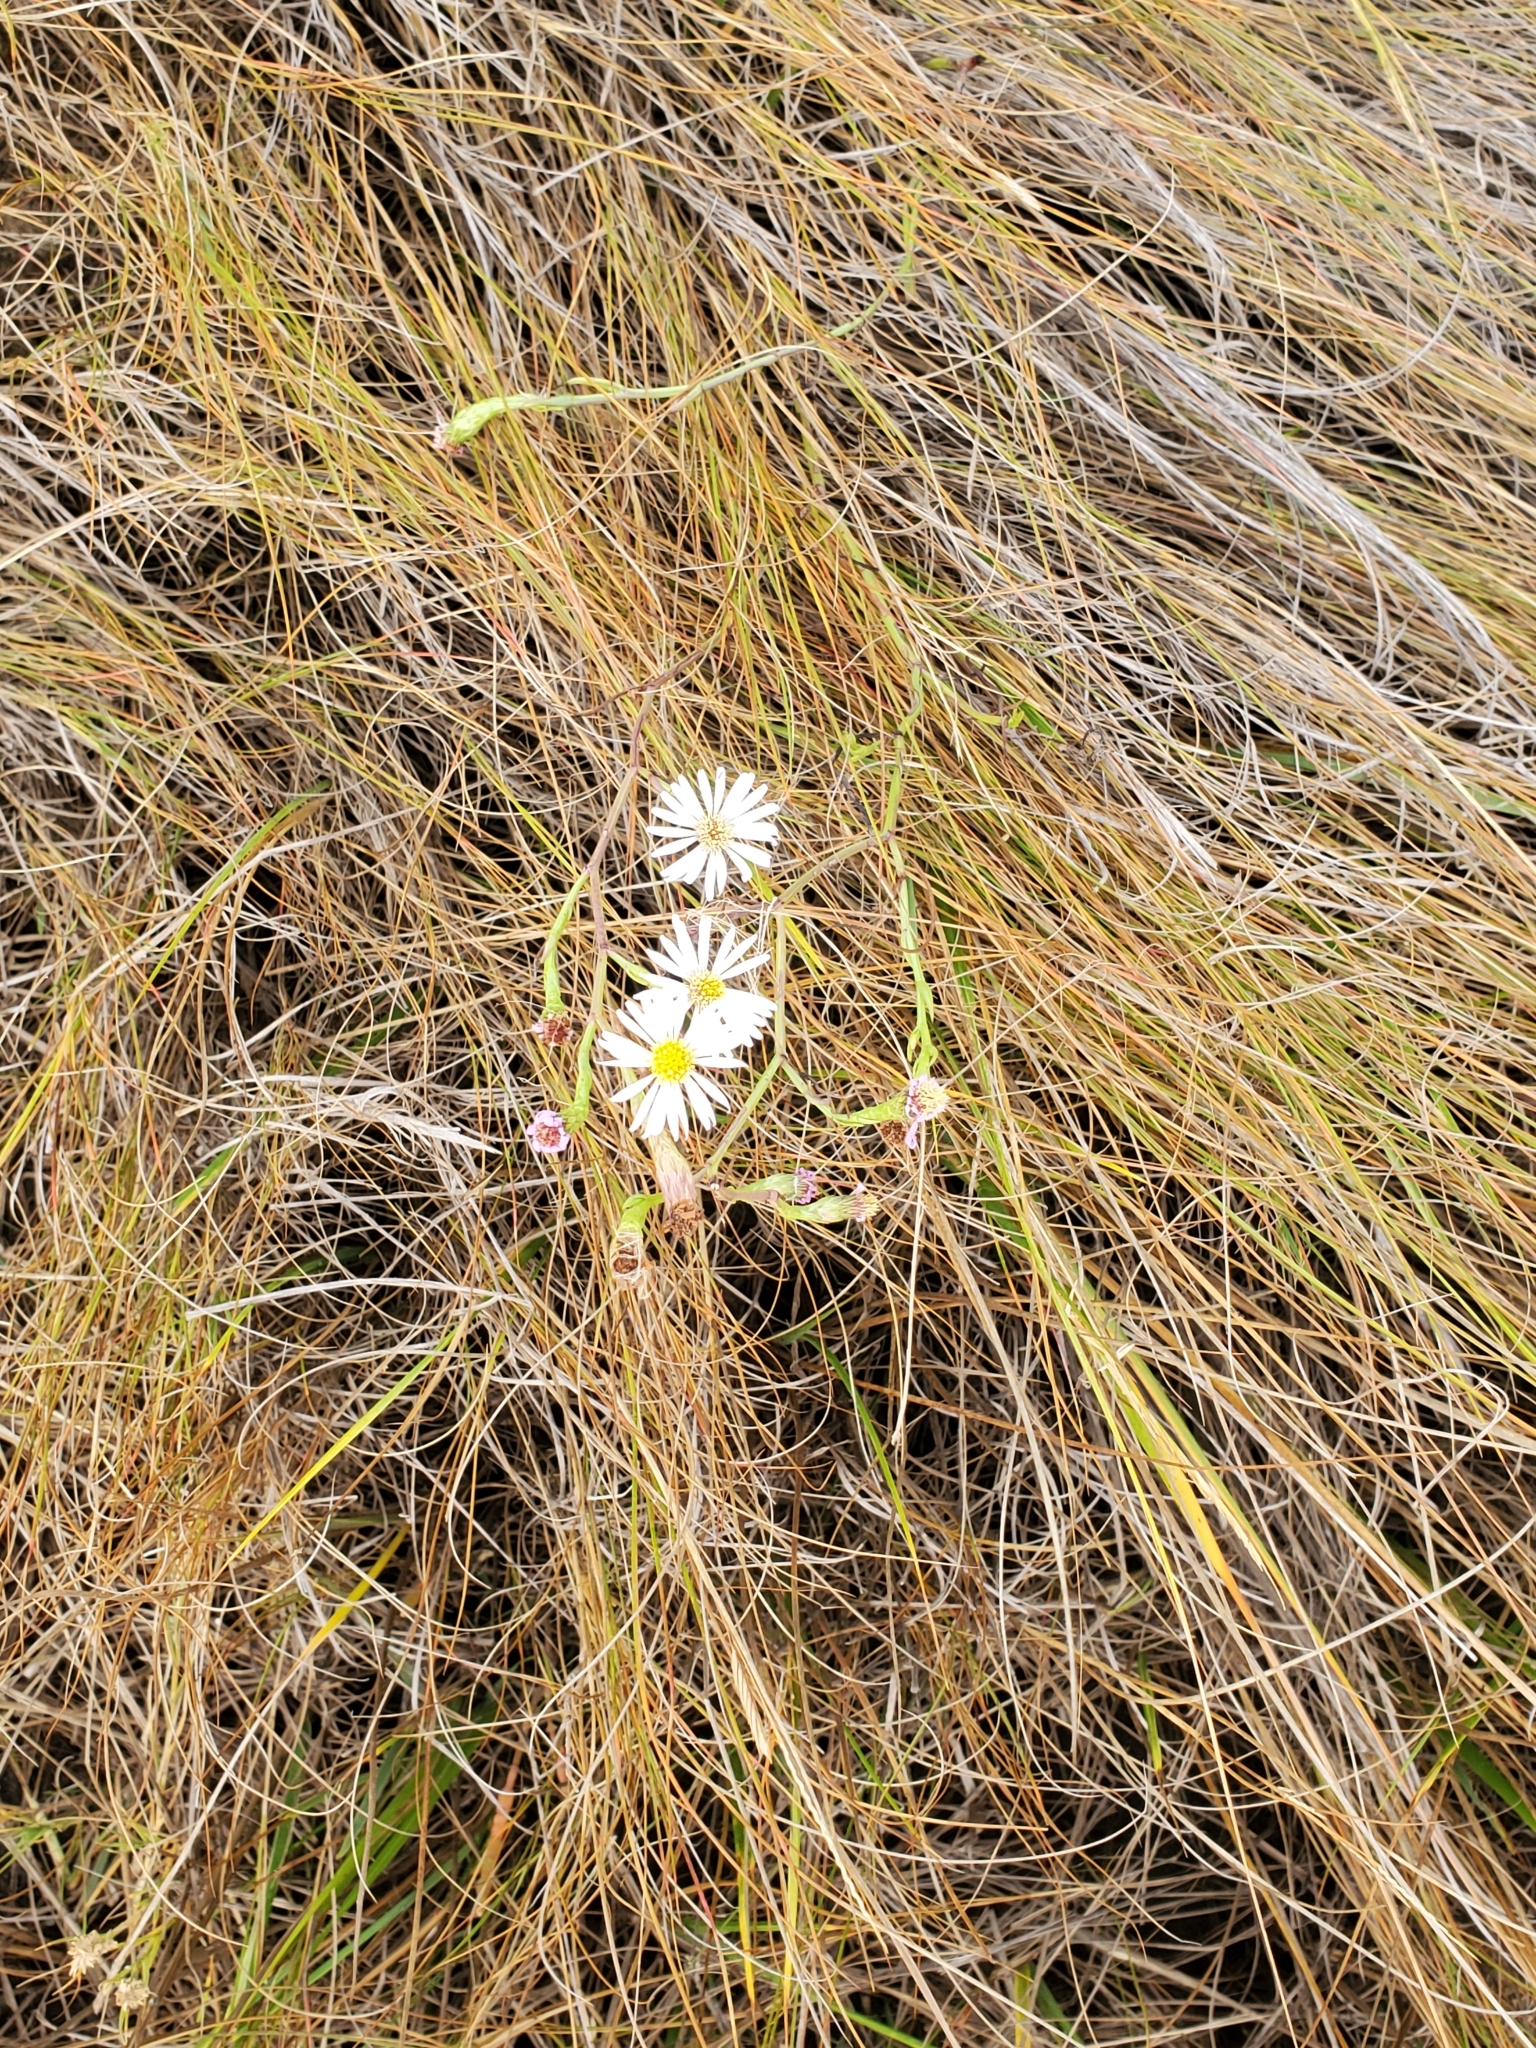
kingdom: Plantae
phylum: Tracheophyta
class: Magnoliopsida
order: Asterales
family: Asteraceae
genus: Symphyotrichum
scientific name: Symphyotrichum tenuifolium
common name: Perennial salt-marsh aster
